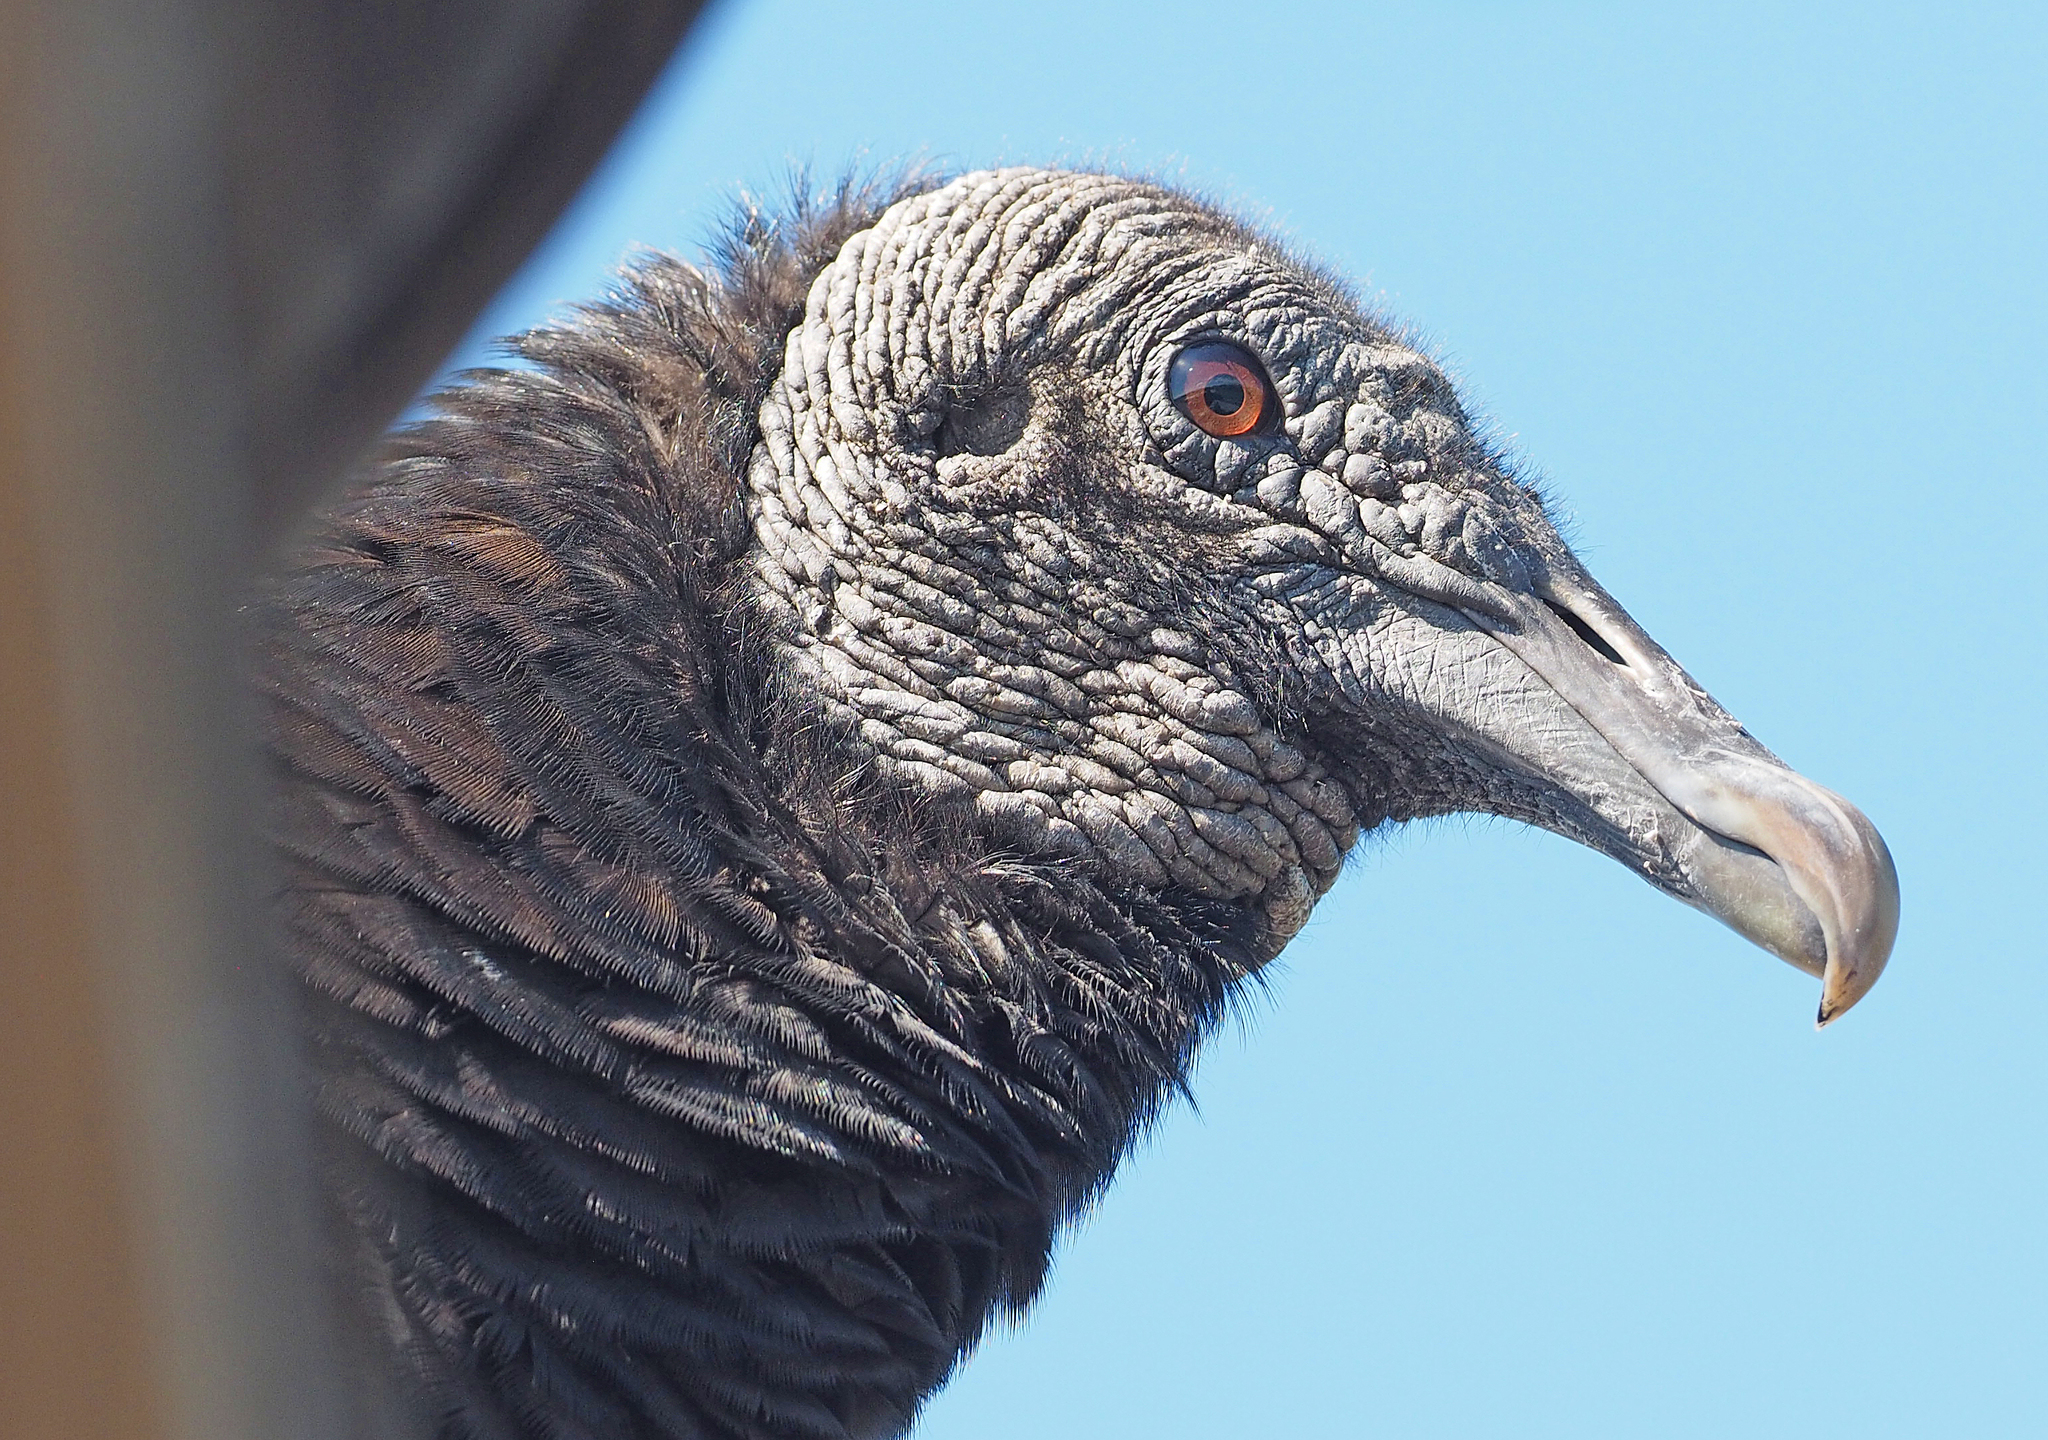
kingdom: Animalia
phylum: Chordata
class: Aves
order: Accipitriformes
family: Cathartidae
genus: Coragyps
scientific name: Coragyps atratus
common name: Black vulture
